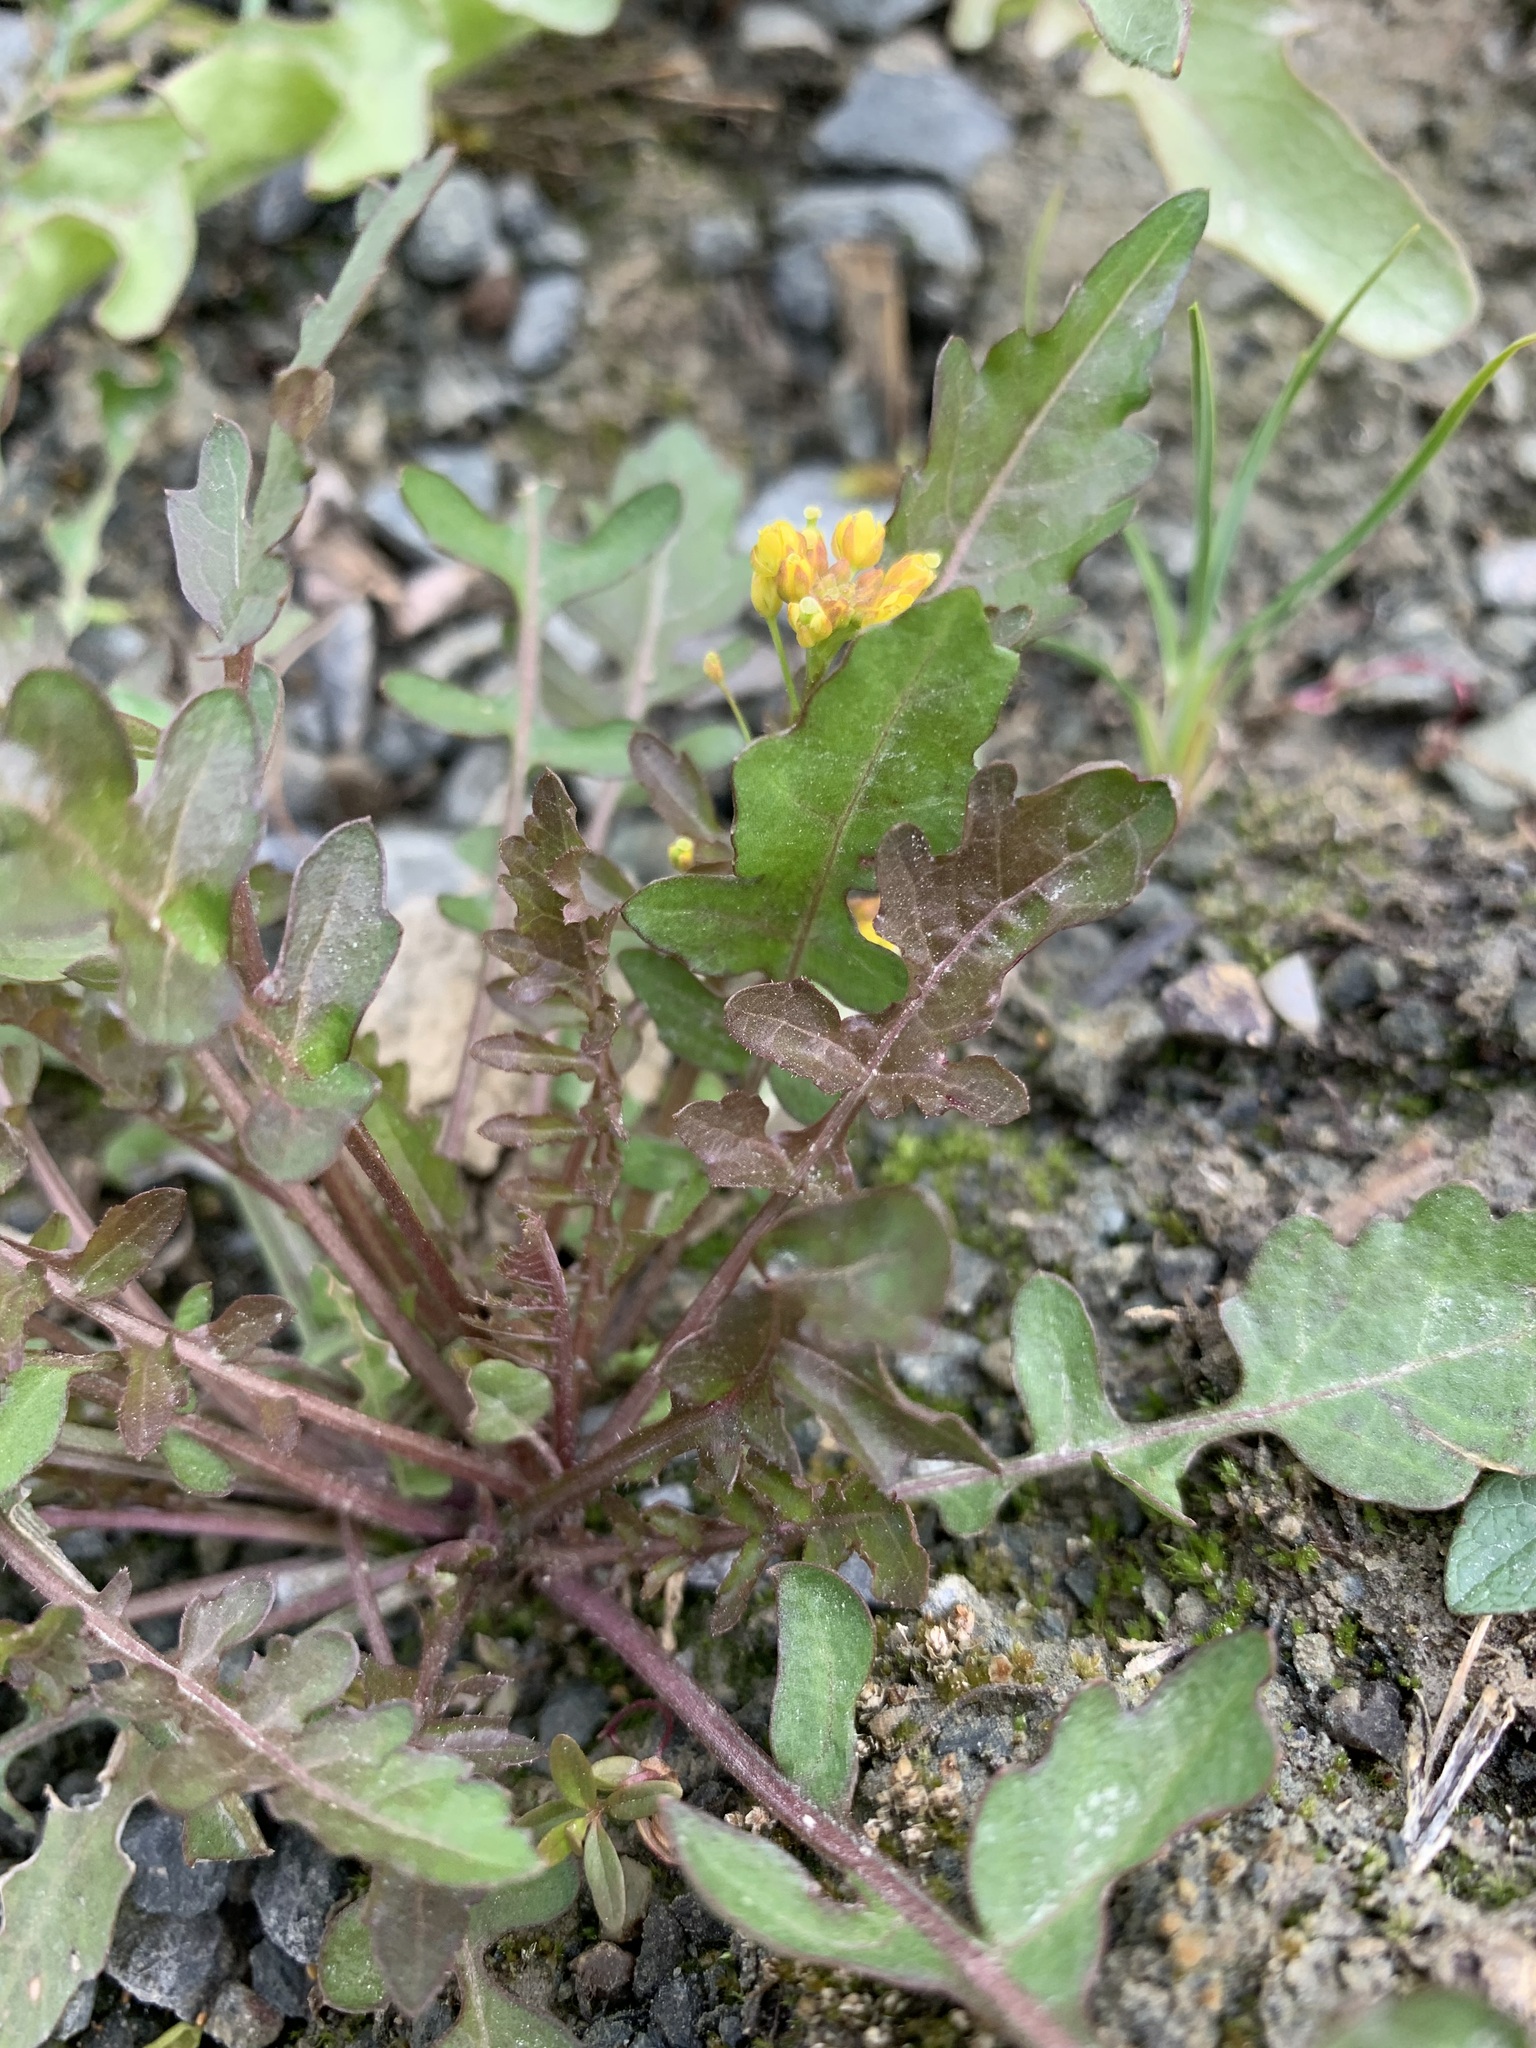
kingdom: Plantae
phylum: Tracheophyta
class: Magnoliopsida
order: Brassicales
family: Brassicaceae
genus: Rorippa
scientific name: Rorippa palustris
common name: Marsh yellow-cress
